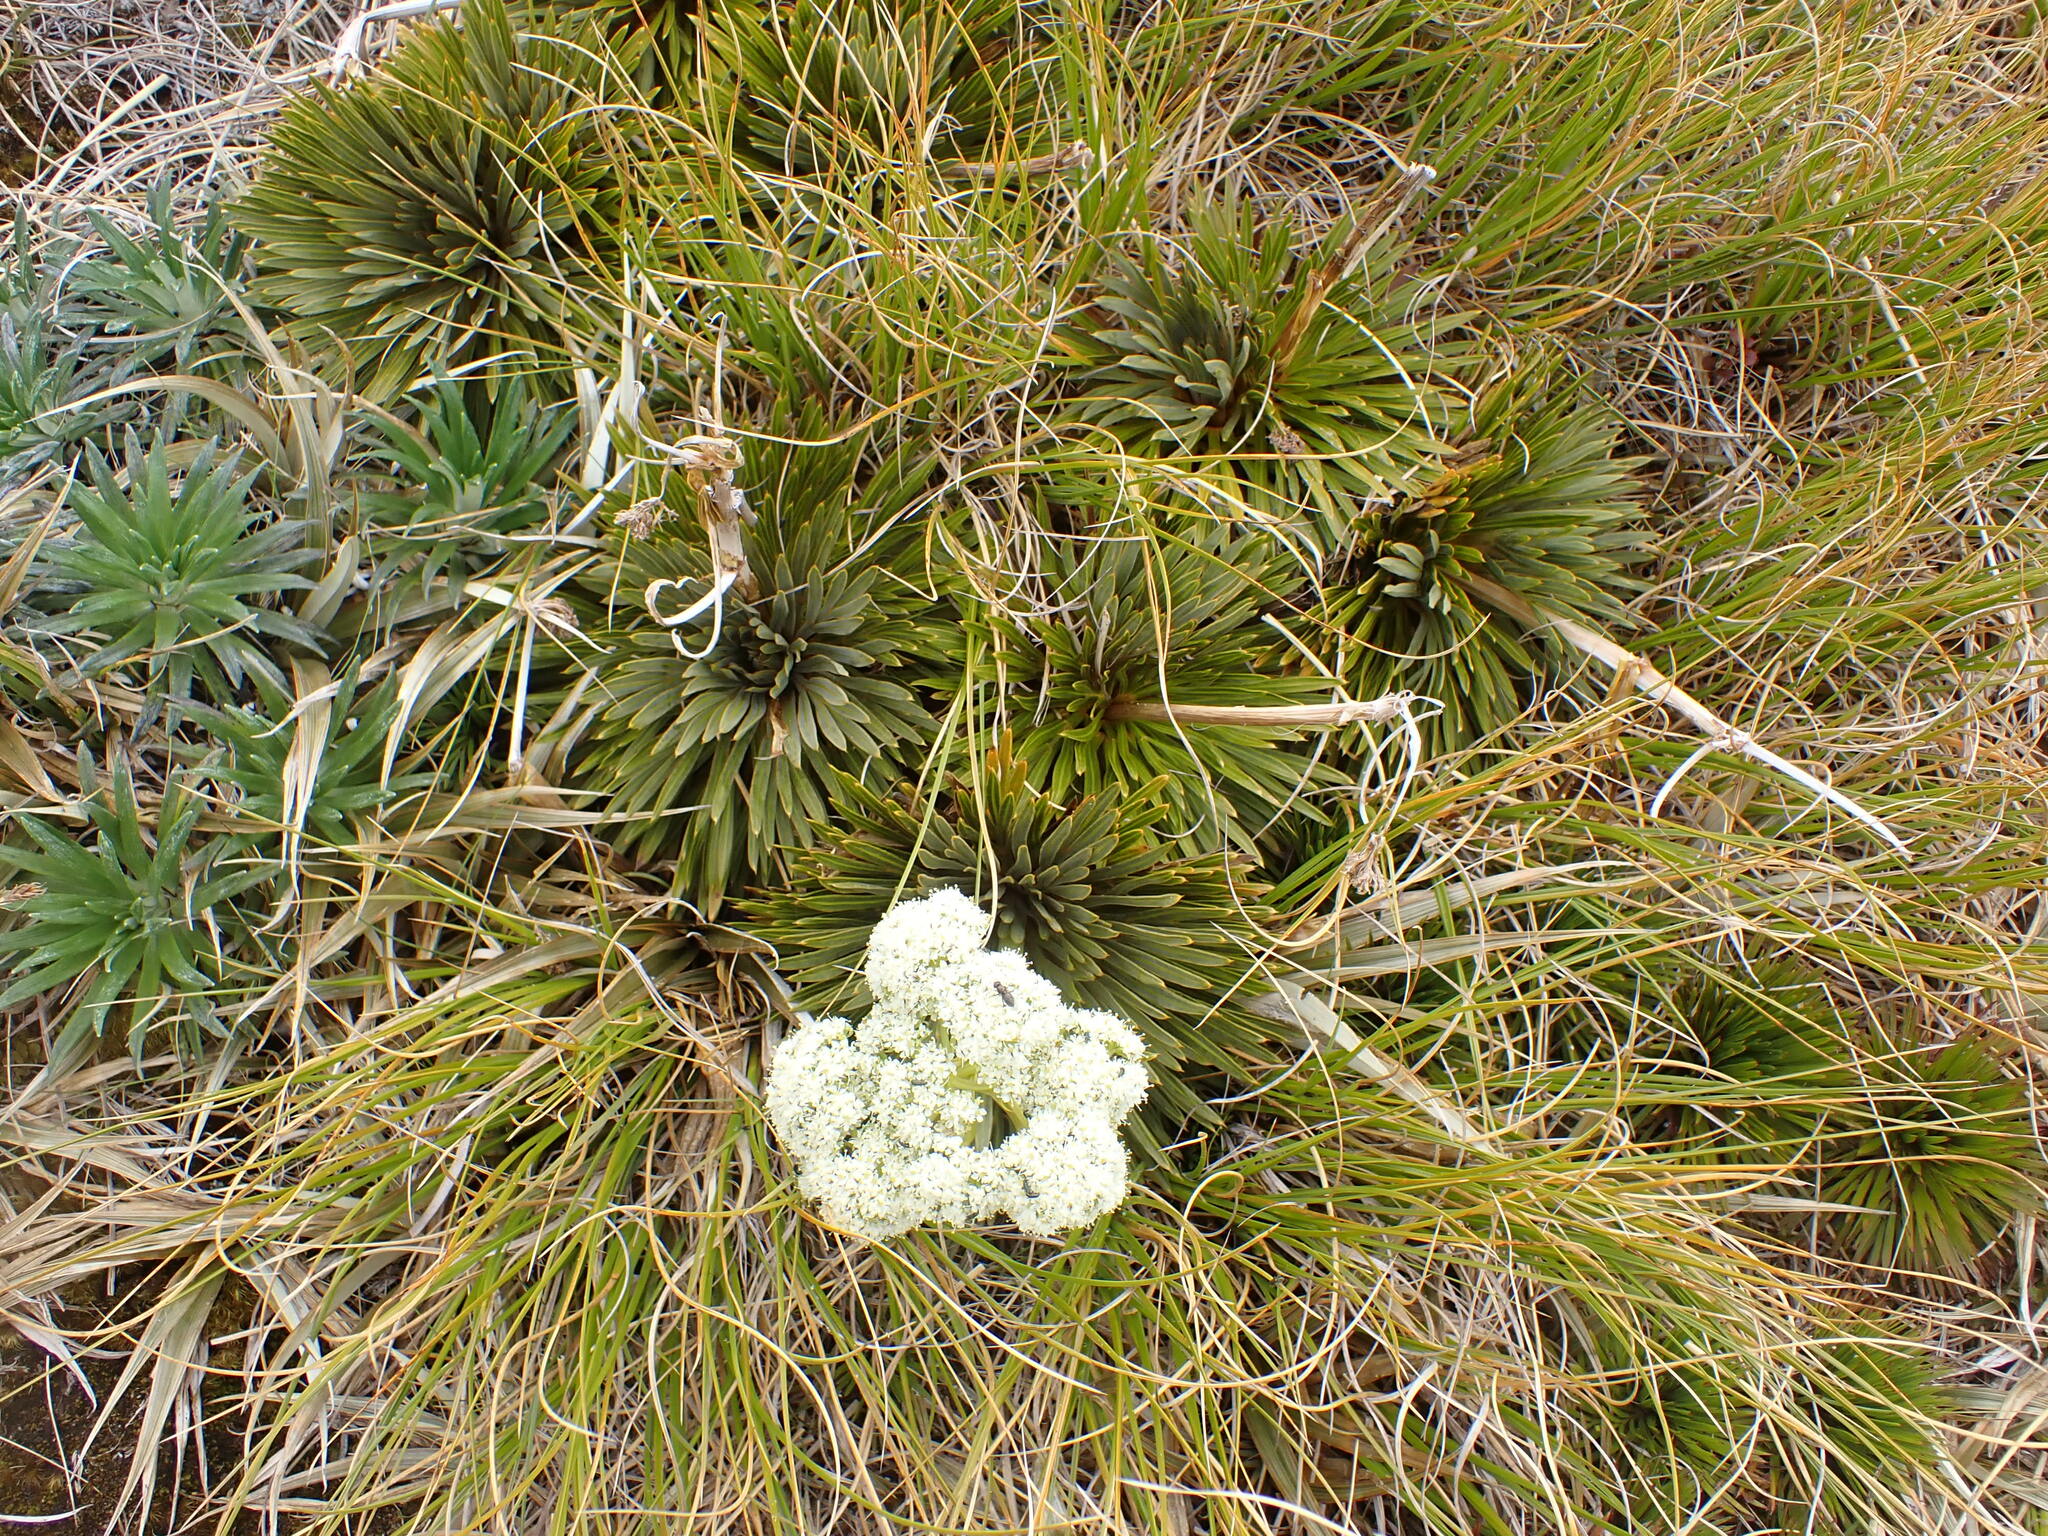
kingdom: Plantae
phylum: Tracheophyta
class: Magnoliopsida
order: Apiales
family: Apiaceae
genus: Aciphylla
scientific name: Aciphylla crosby-smithii
